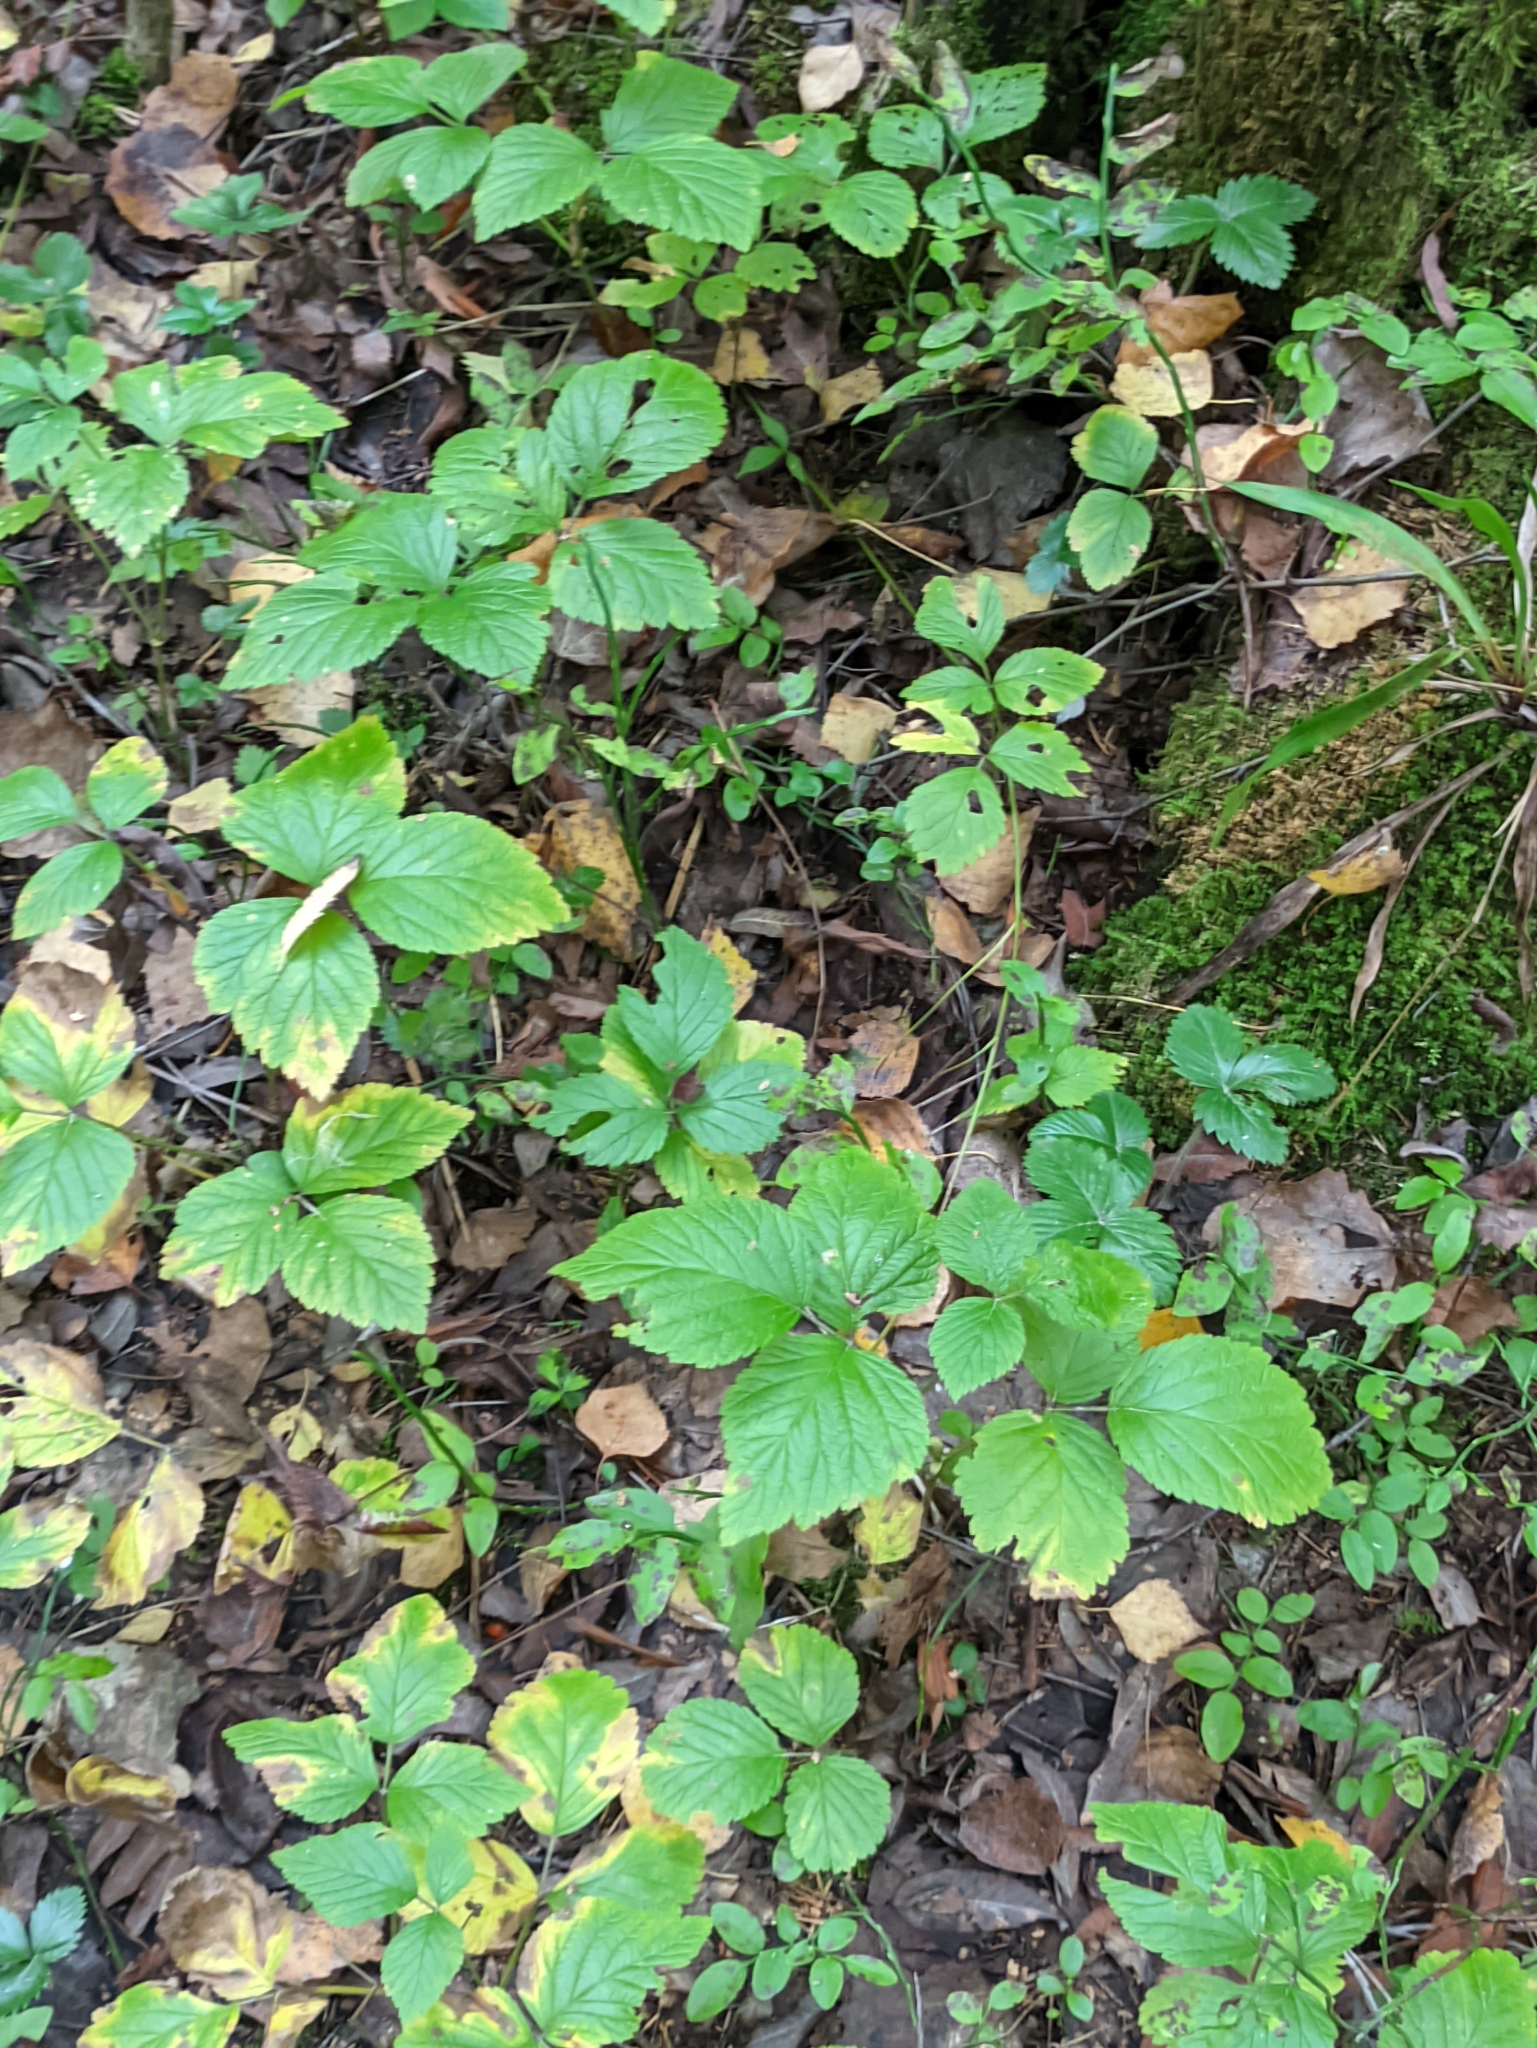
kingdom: Plantae
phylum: Tracheophyta
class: Magnoliopsida
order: Rosales
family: Rosaceae
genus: Rubus
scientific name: Rubus saxatilis
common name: Stone bramble
